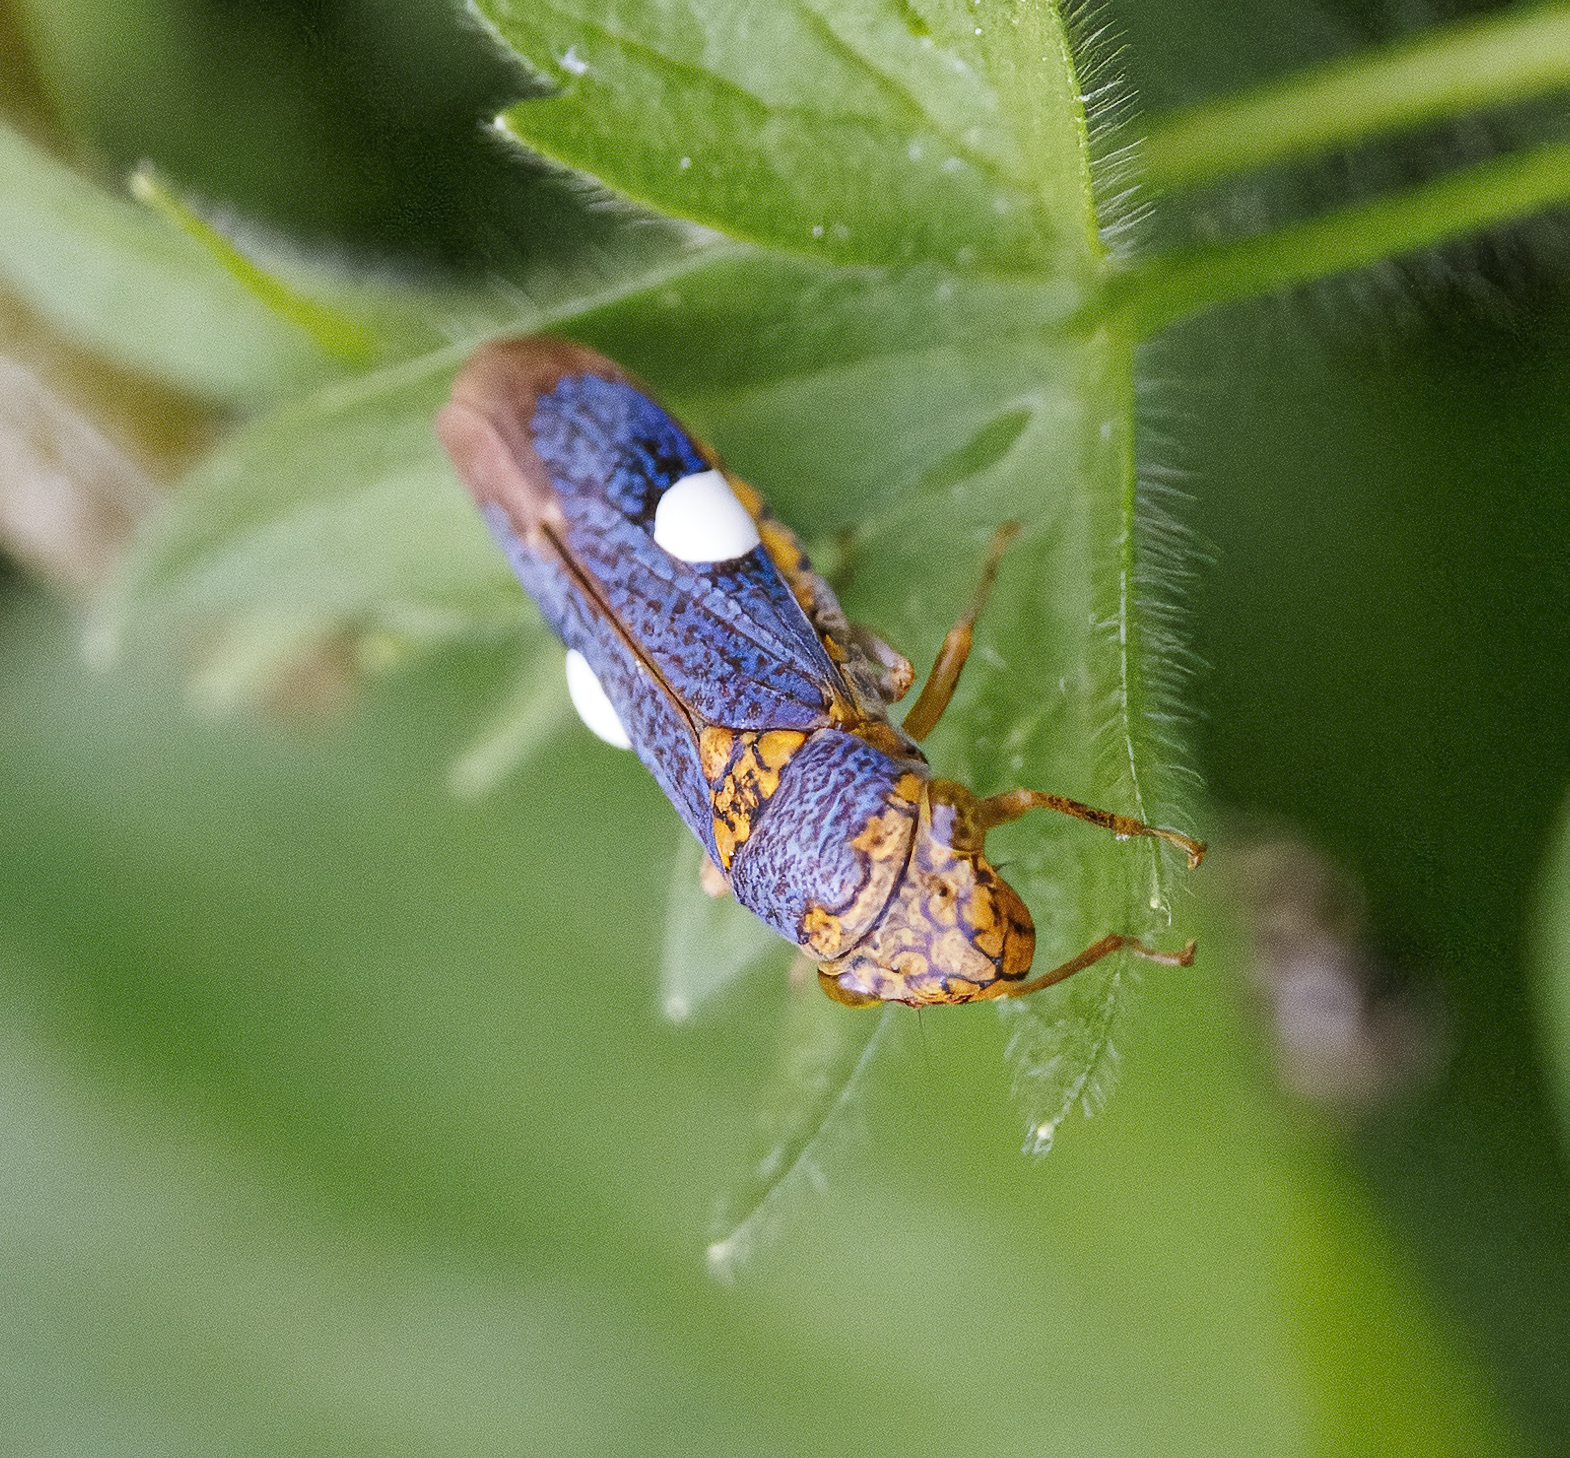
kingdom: Animalia
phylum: Arthropoda
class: Insecta
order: Hemiptera
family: Cicadellidae
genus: Oncometopia
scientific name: Oncometopia orbona
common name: Broad-headed sharpshooter
